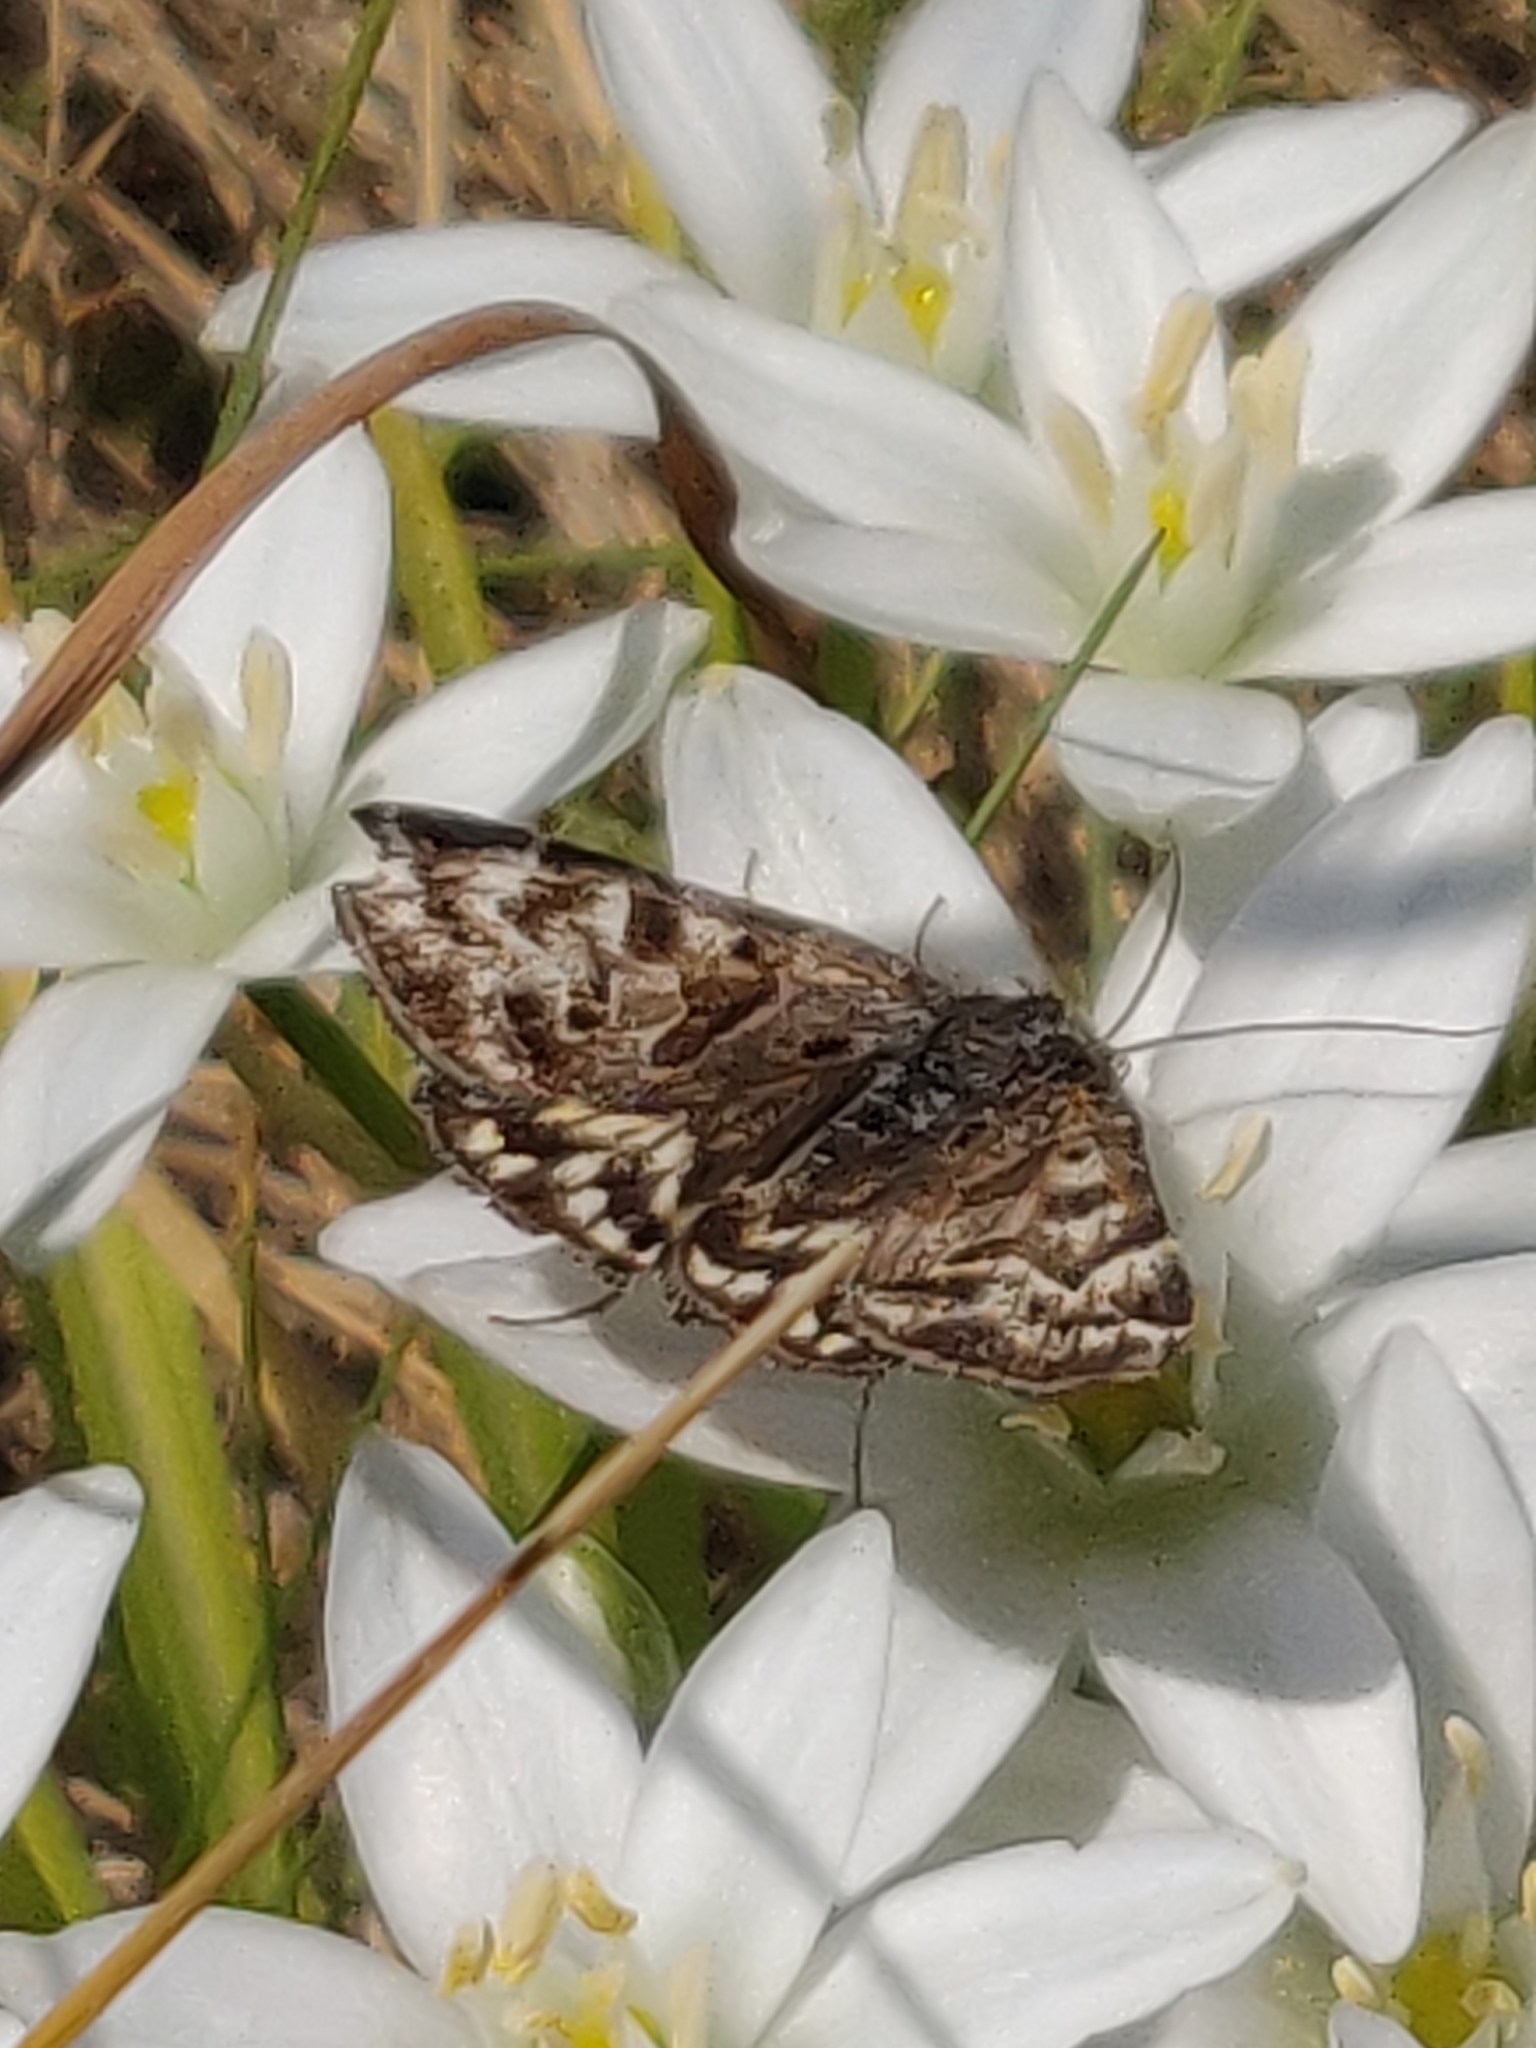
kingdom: Animalia
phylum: Arthropoda
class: Insecta
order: Lepidoptera
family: Erebidae
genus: Callistege
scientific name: Callistege mi
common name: Mother shipton
